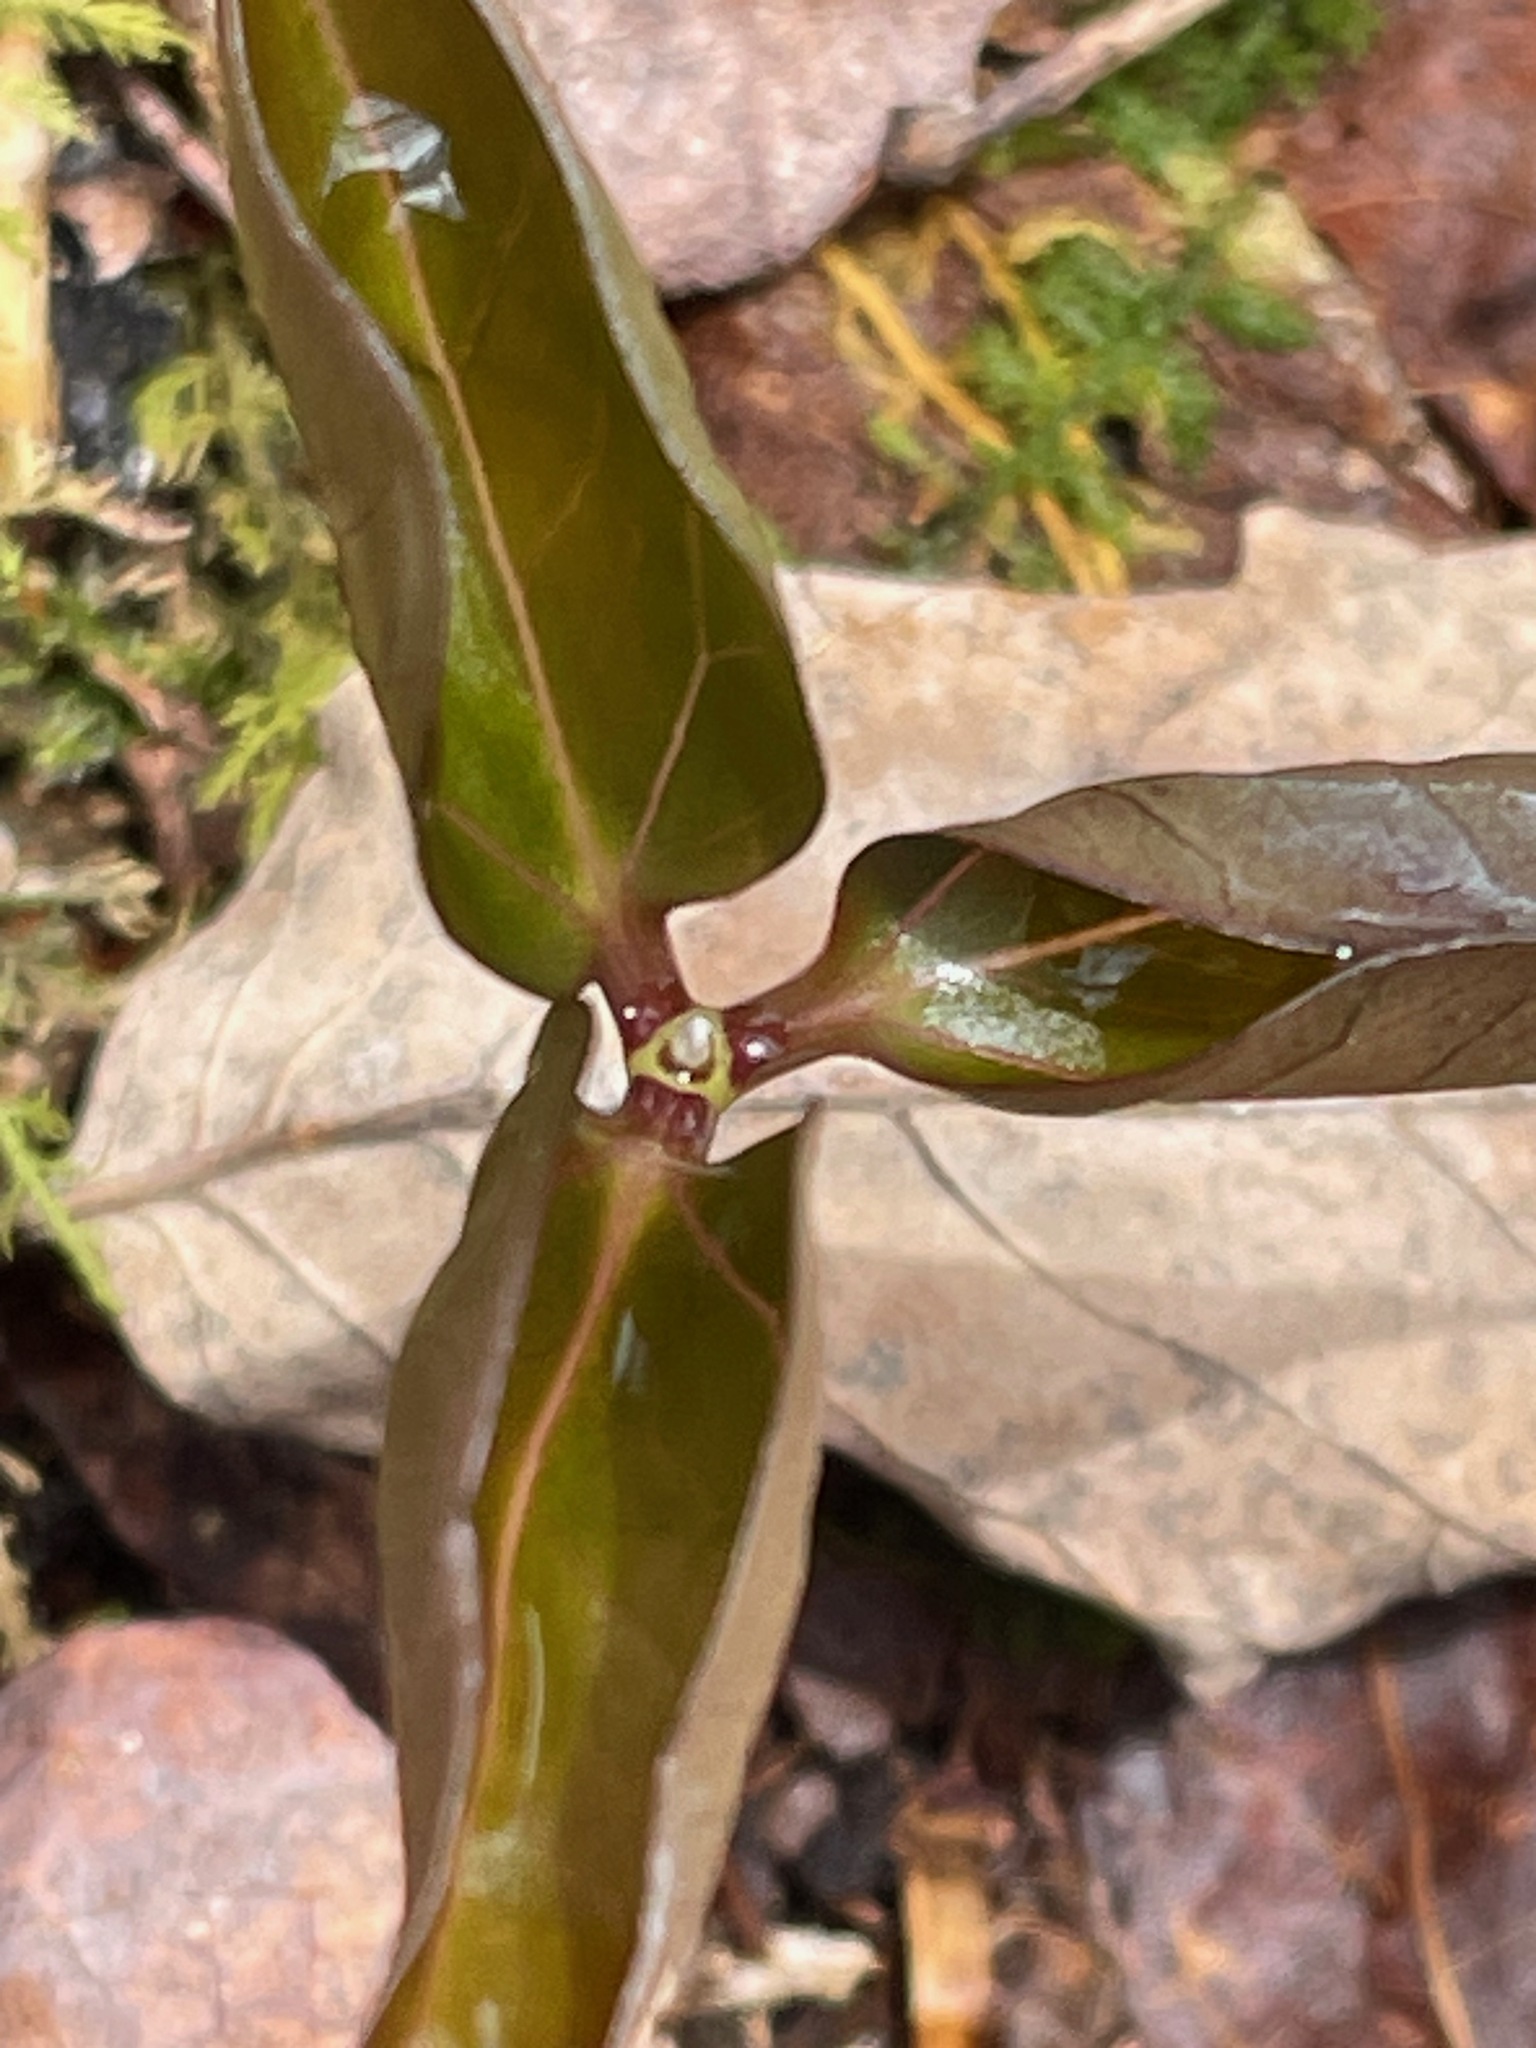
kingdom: Plantae
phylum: Tracheophyta
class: Liliopsida
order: Liliales
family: Melanthiaceae
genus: Trillium
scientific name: Trillium undulatum
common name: Paint trillium
